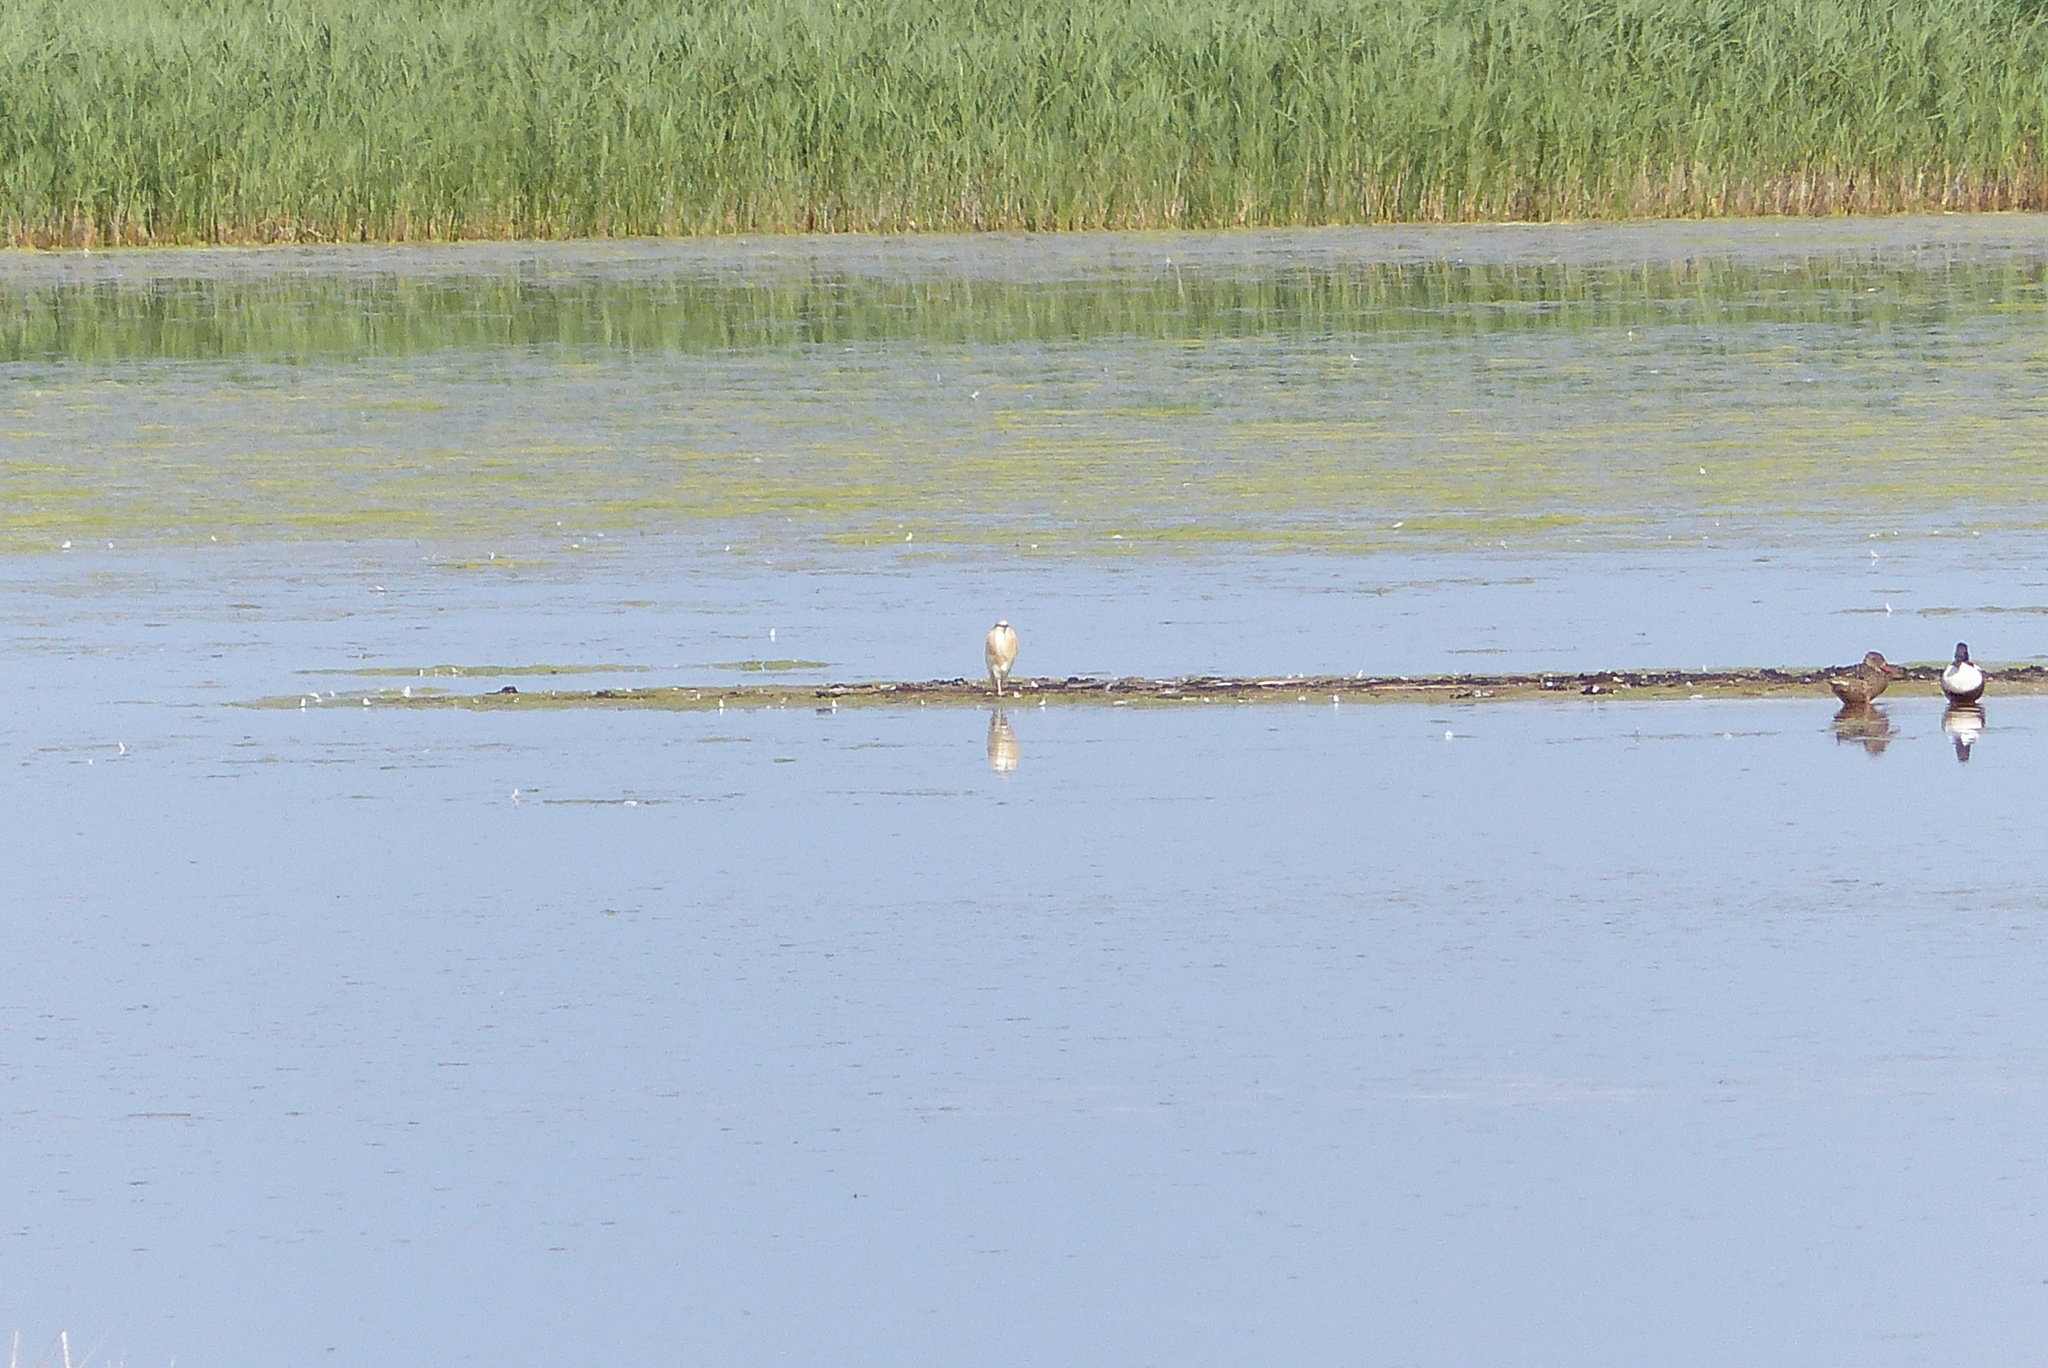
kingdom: Animalia
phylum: Chordata
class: Aves
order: Pelecaniformes
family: Ardeidae
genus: Ardeola
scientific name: Ardeola ralloides
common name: Squacco heron
